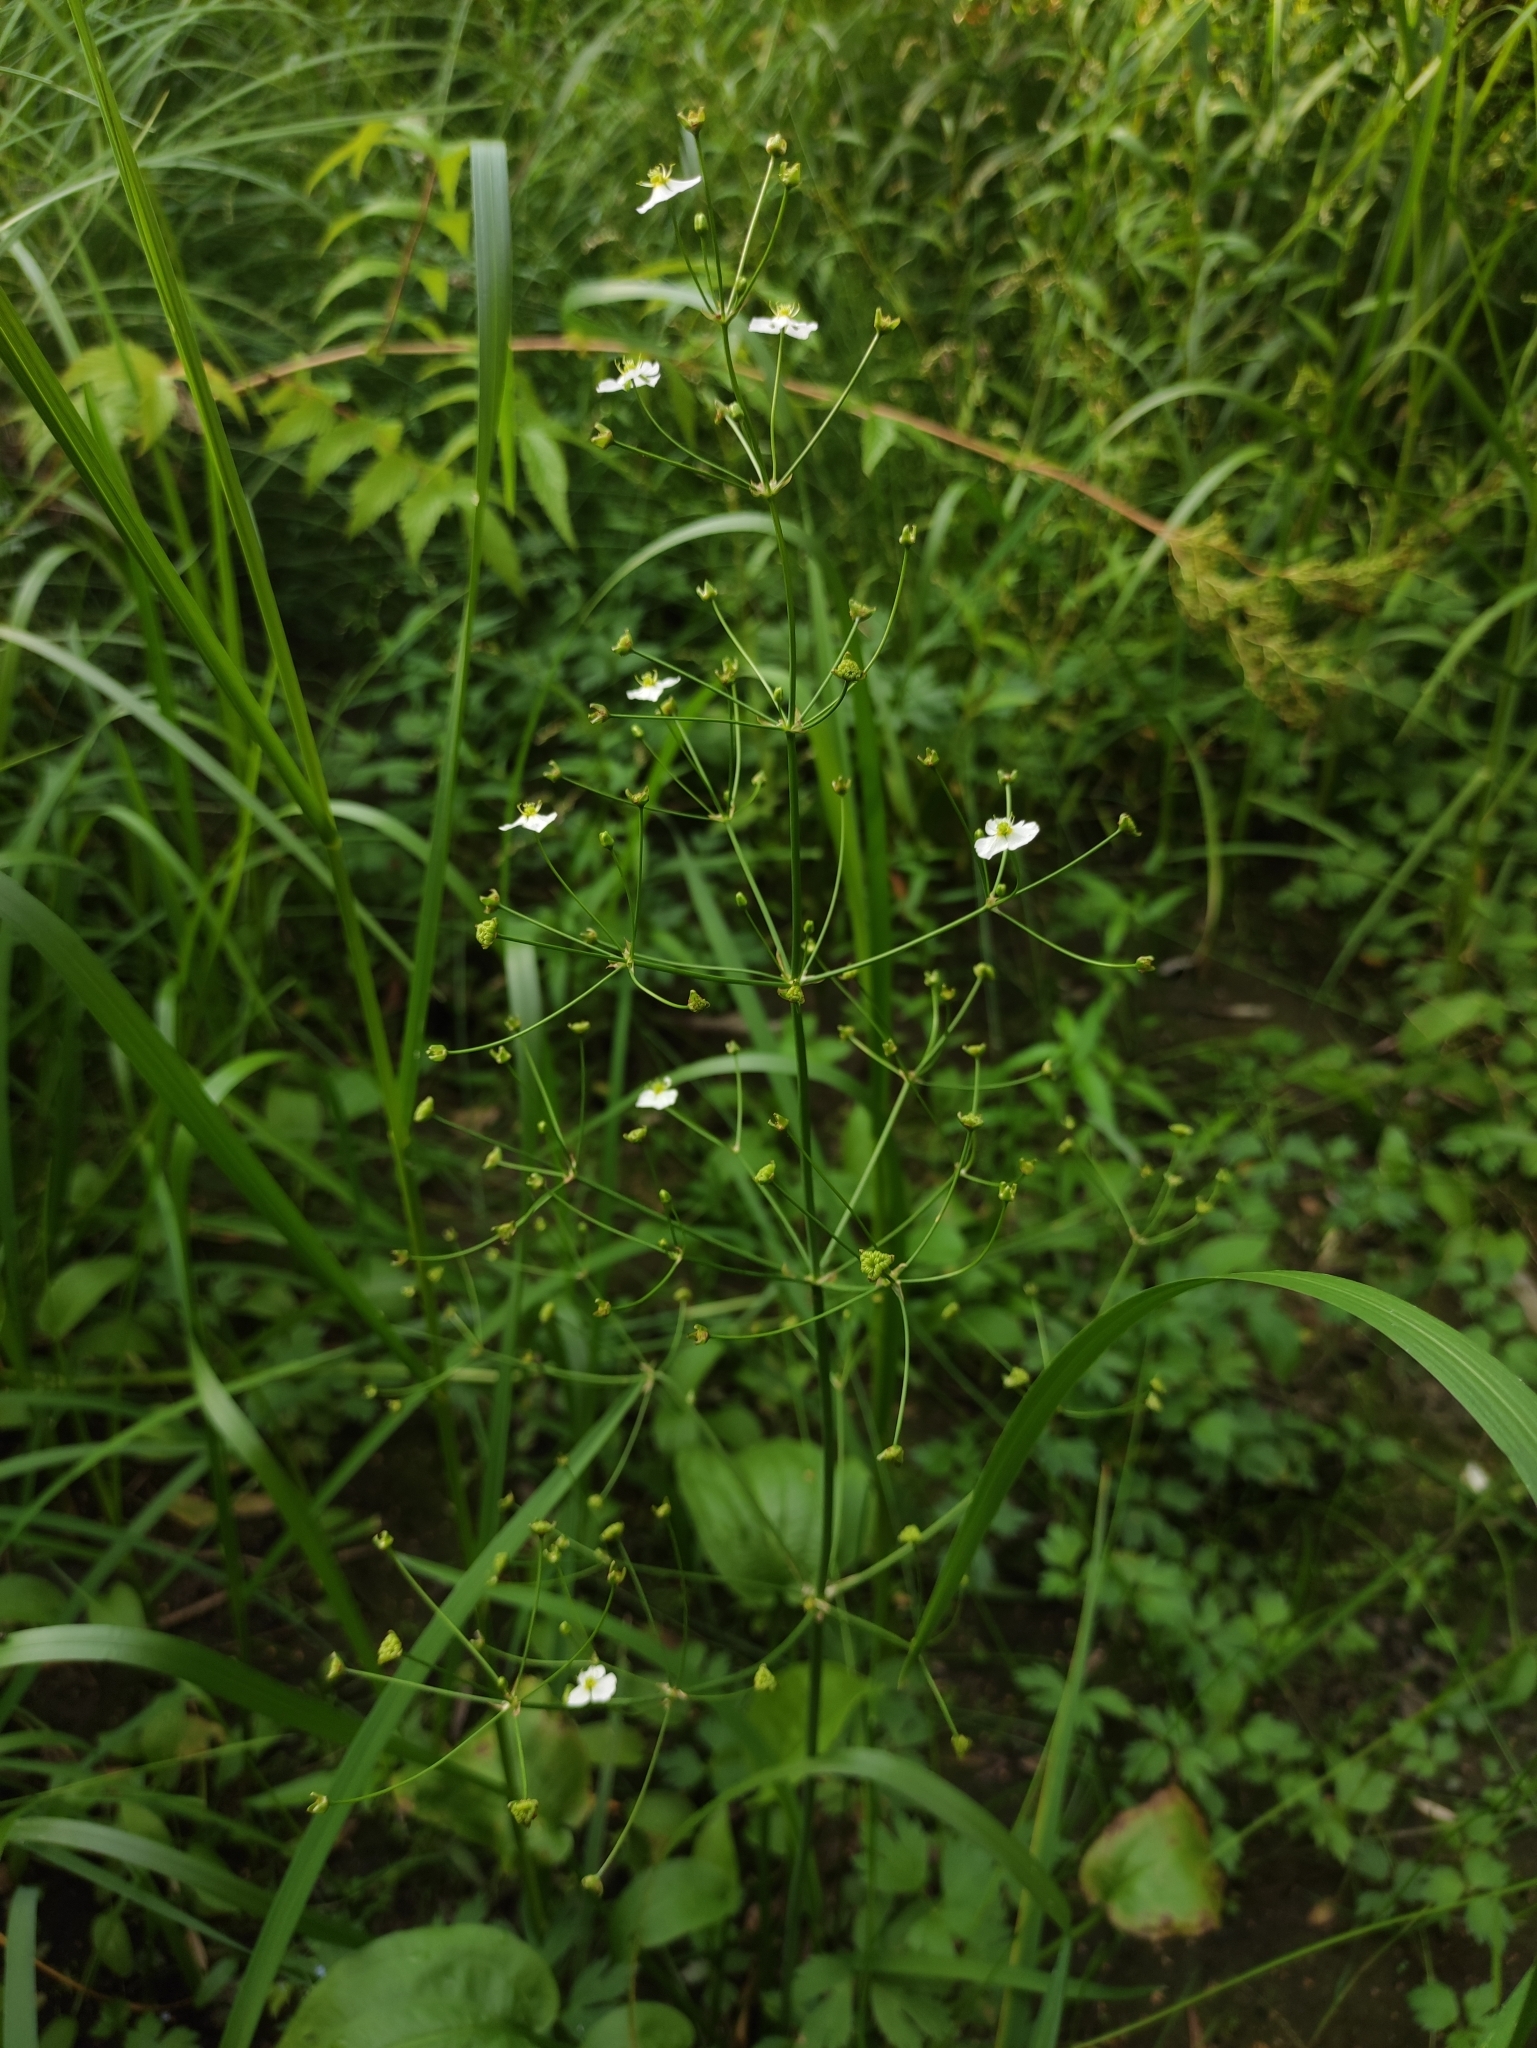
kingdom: Plantae
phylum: Tracheophyta
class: Liliopsida
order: Alismatales
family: Alismataceae
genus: Alisma
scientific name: Alisma plantago-aquatica
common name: Water-plantain
